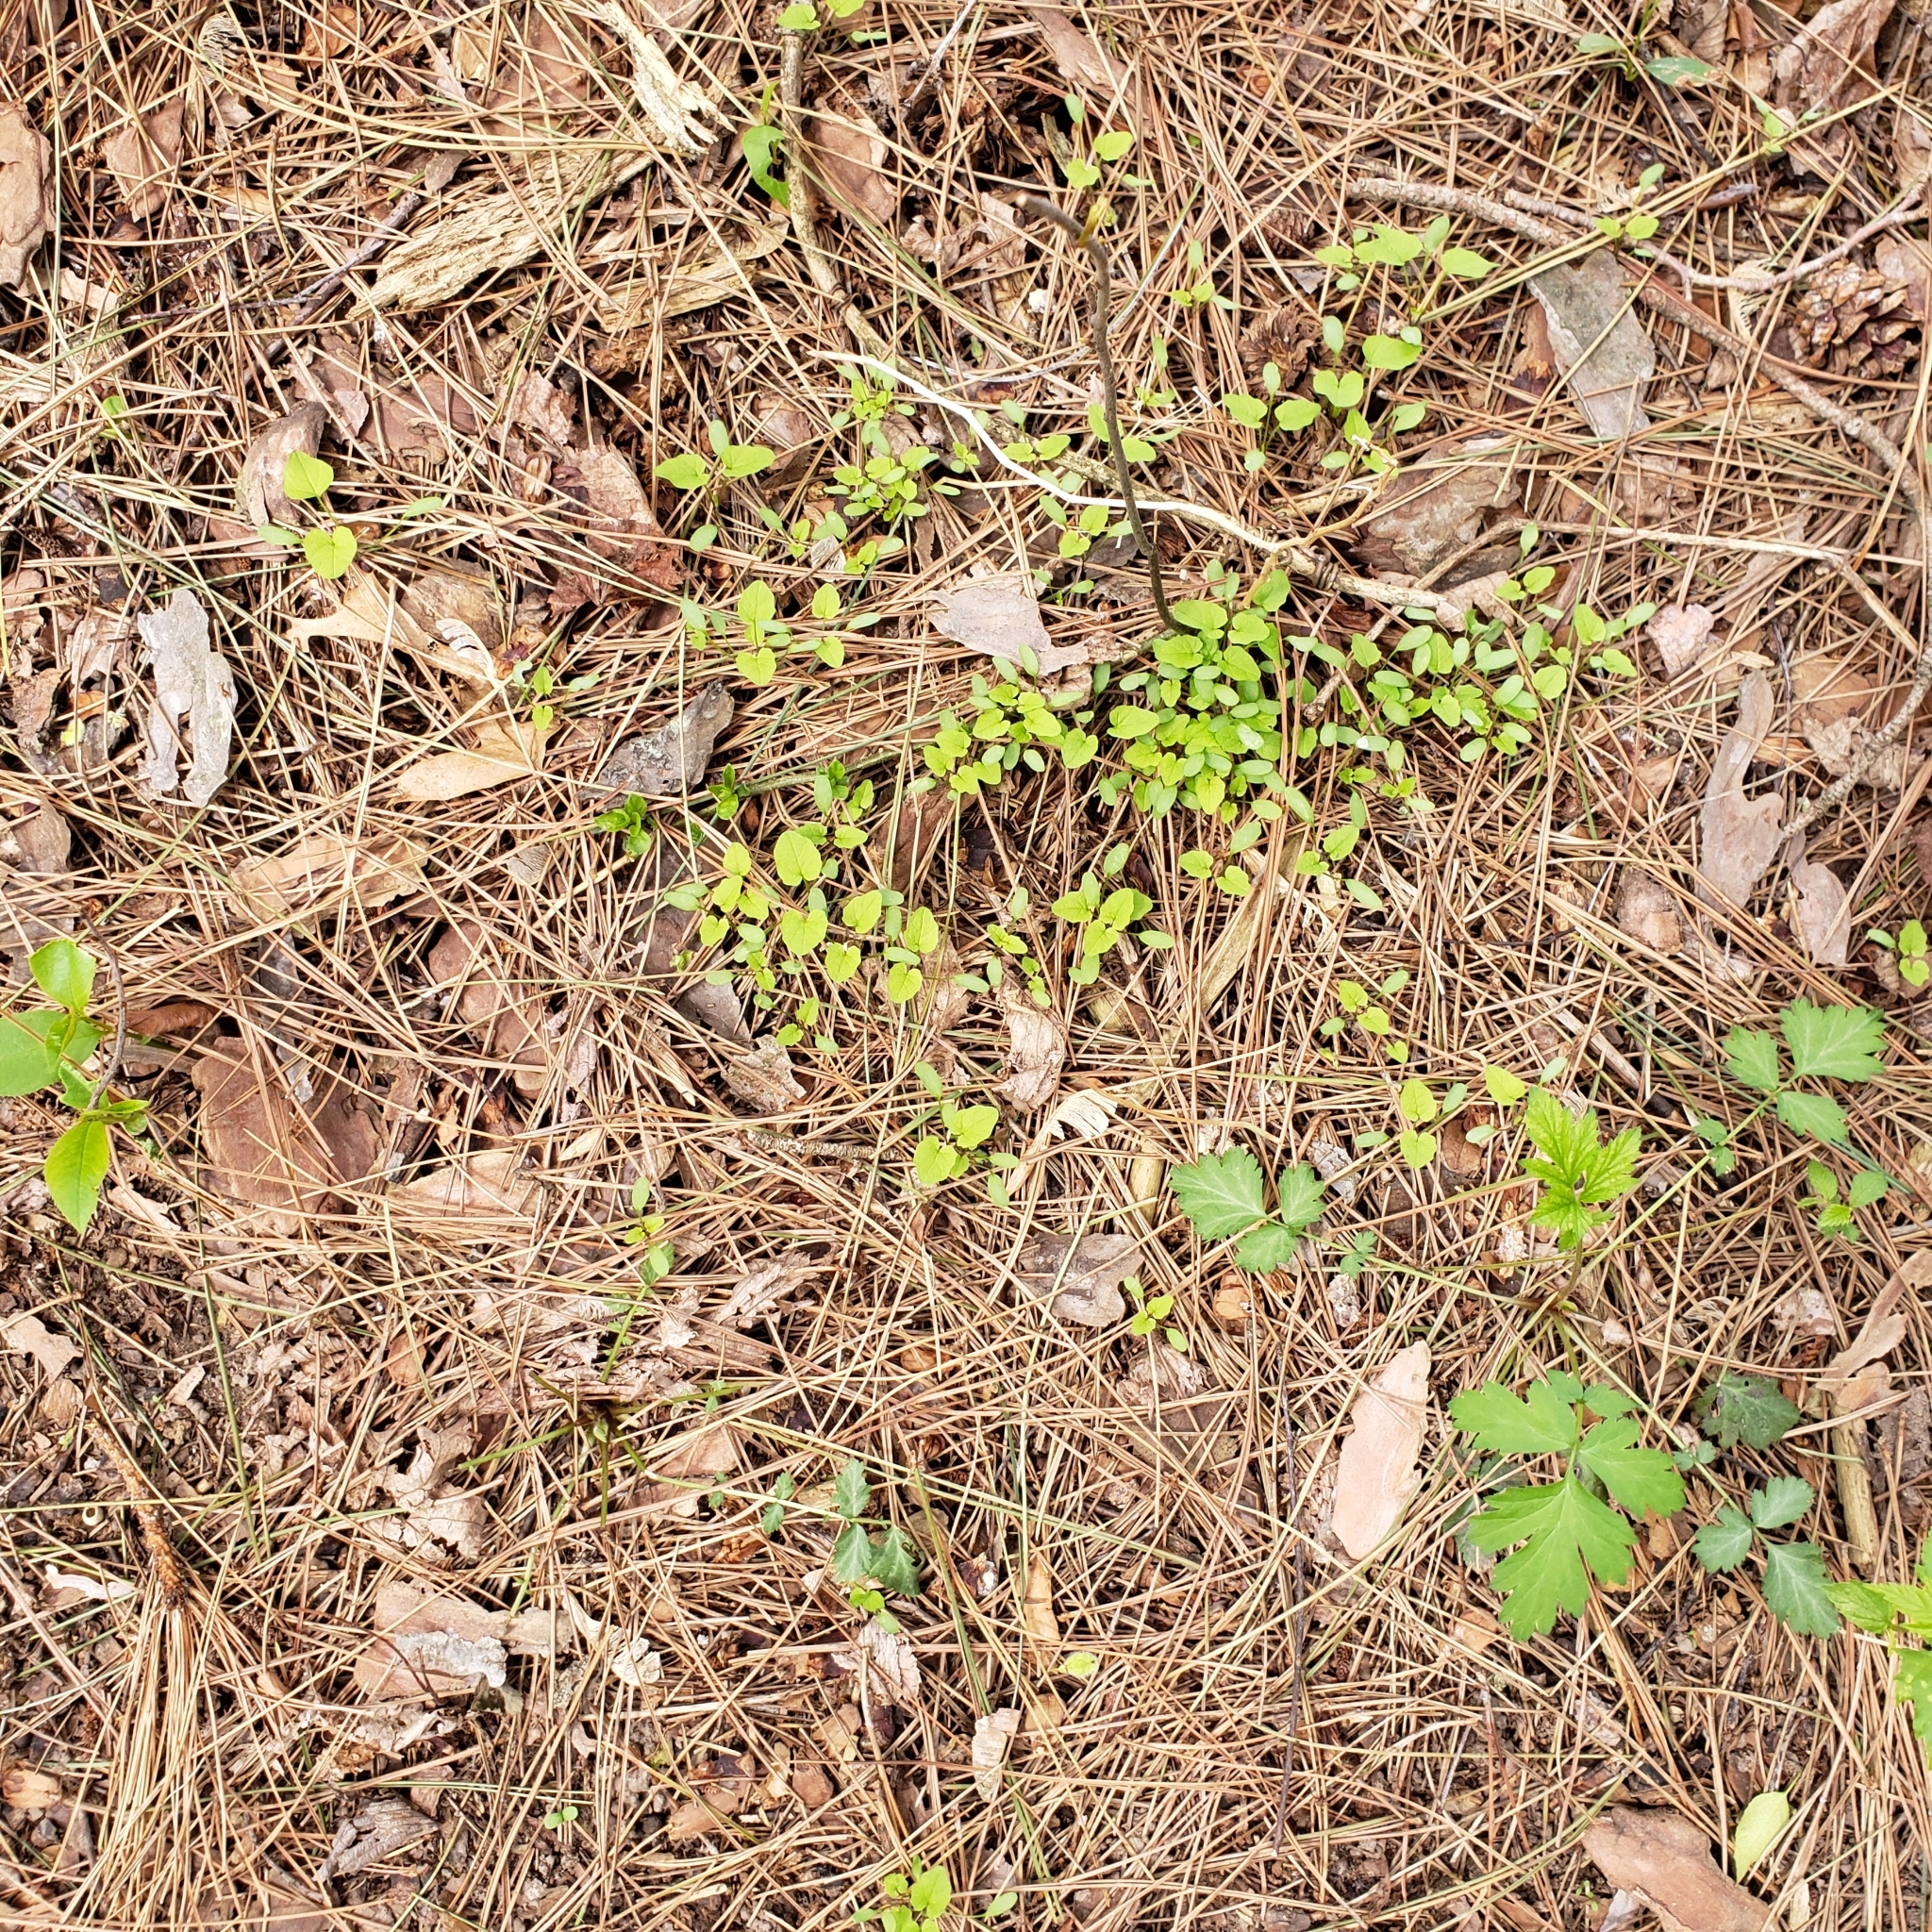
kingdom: Plantae
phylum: Tracheophyta
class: Magnoliopsida
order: Brassicales
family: Brassicaceae
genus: Alliaria
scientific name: Alliaria petiolata
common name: Garlic mustard
